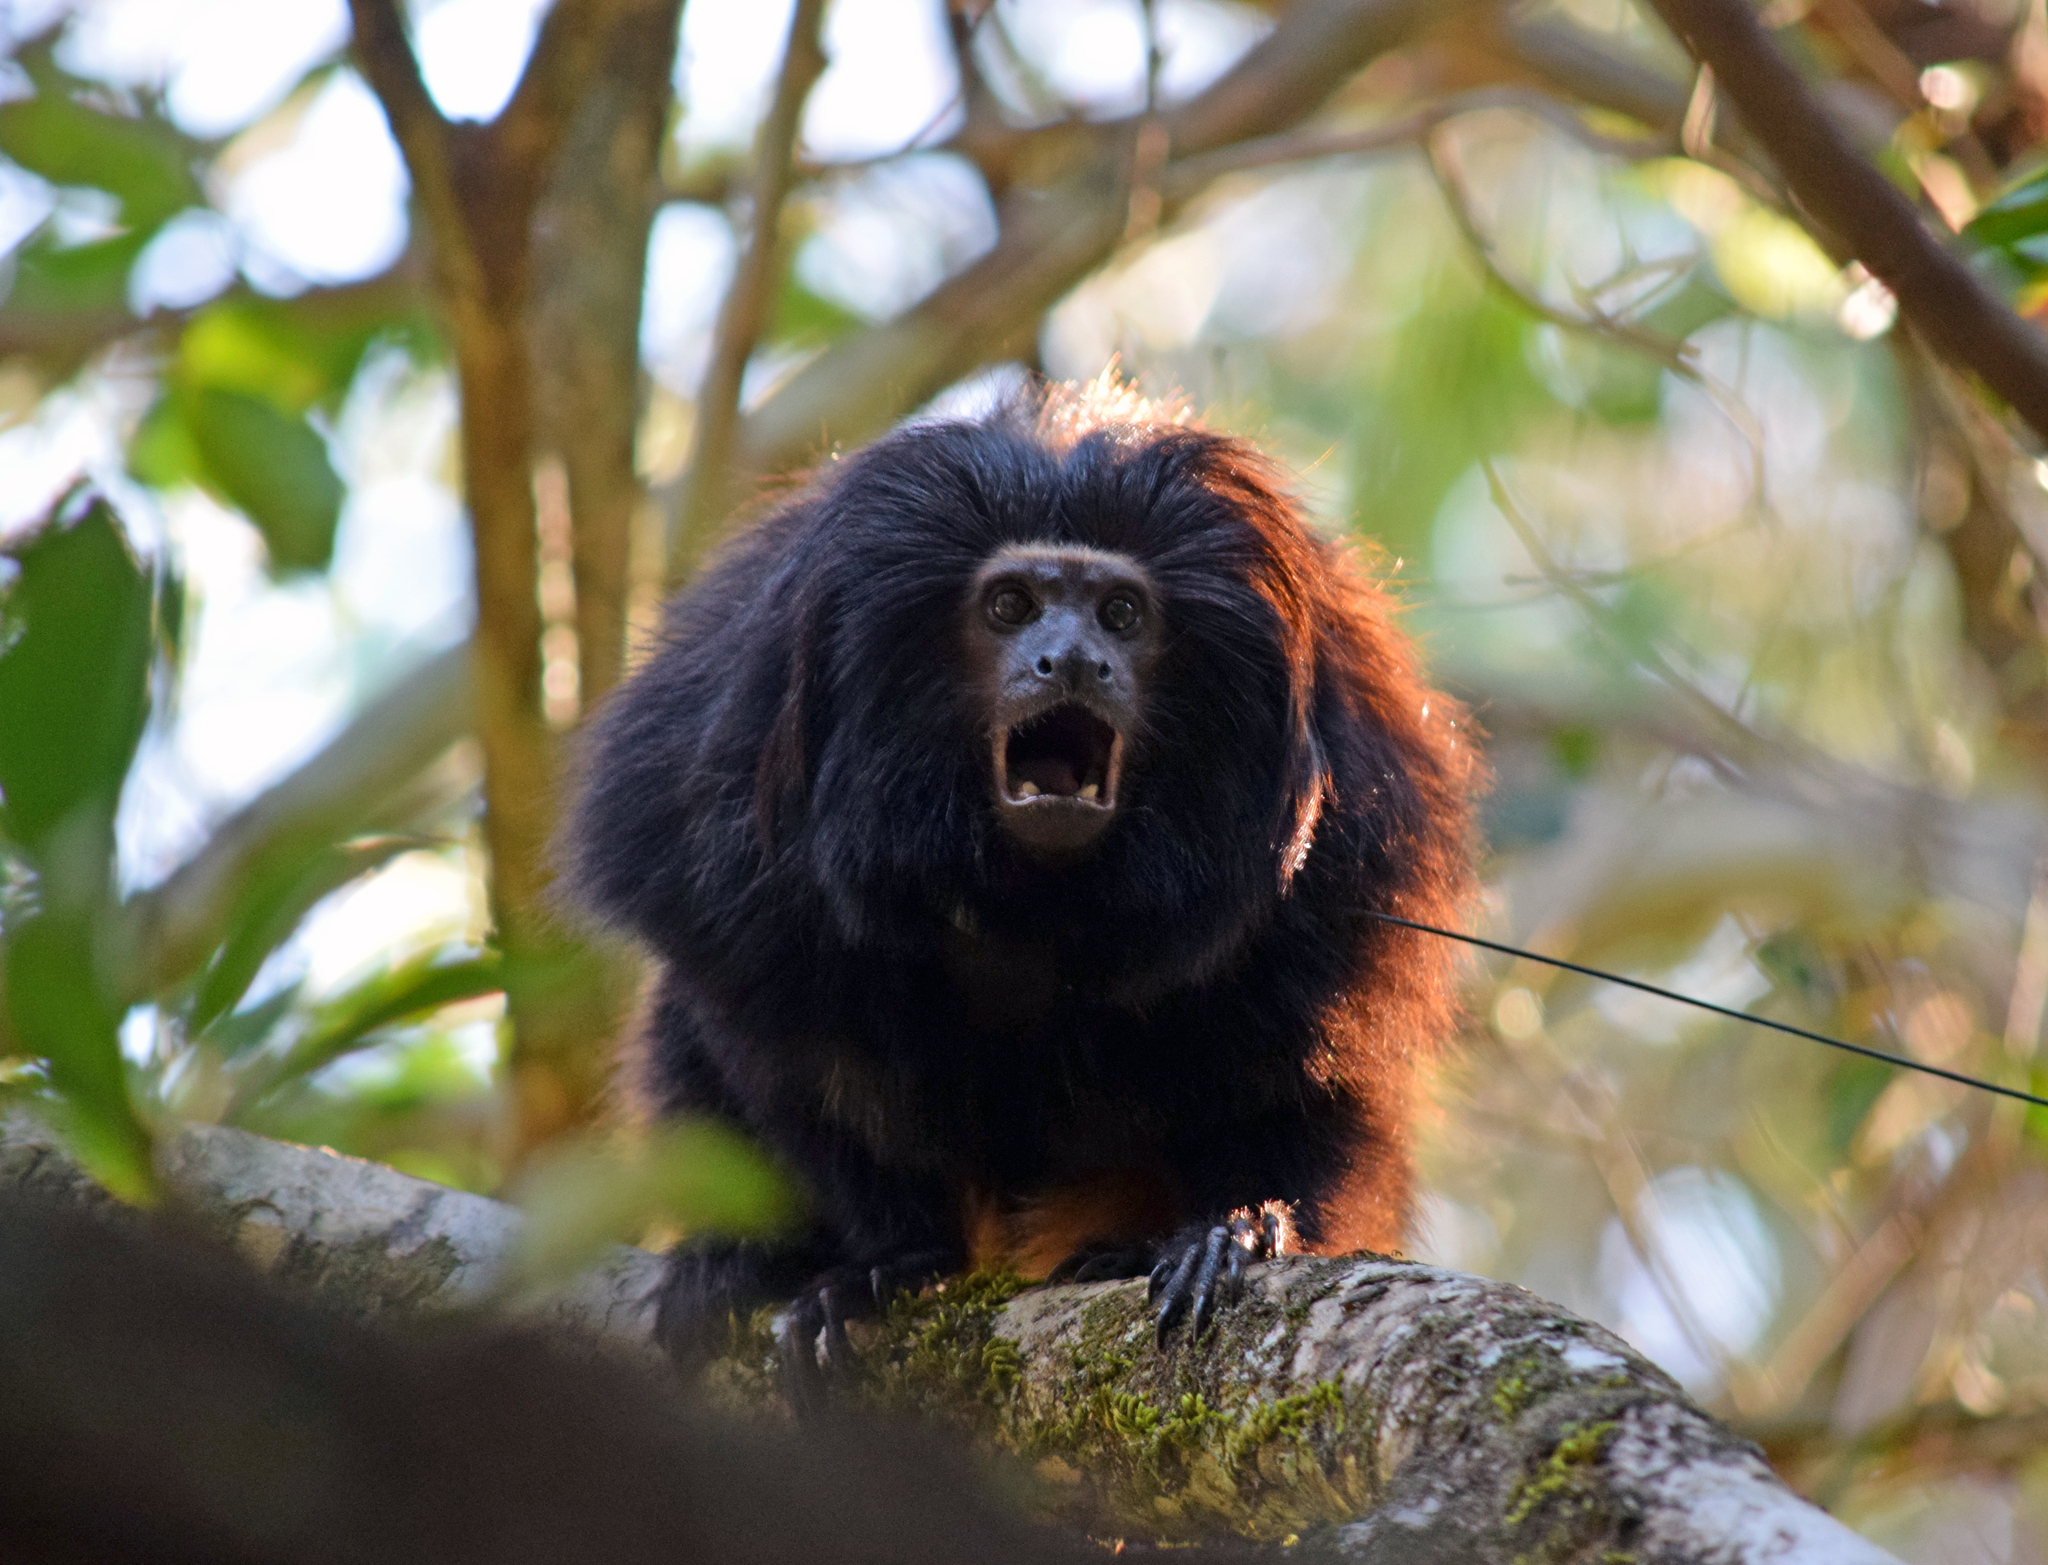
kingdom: Animalia
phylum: Chordata
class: Mammalia
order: Primates
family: Callitrichidae
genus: Leontopithecus
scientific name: Leontopithecus chrysopygus
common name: Black lion tamarin
